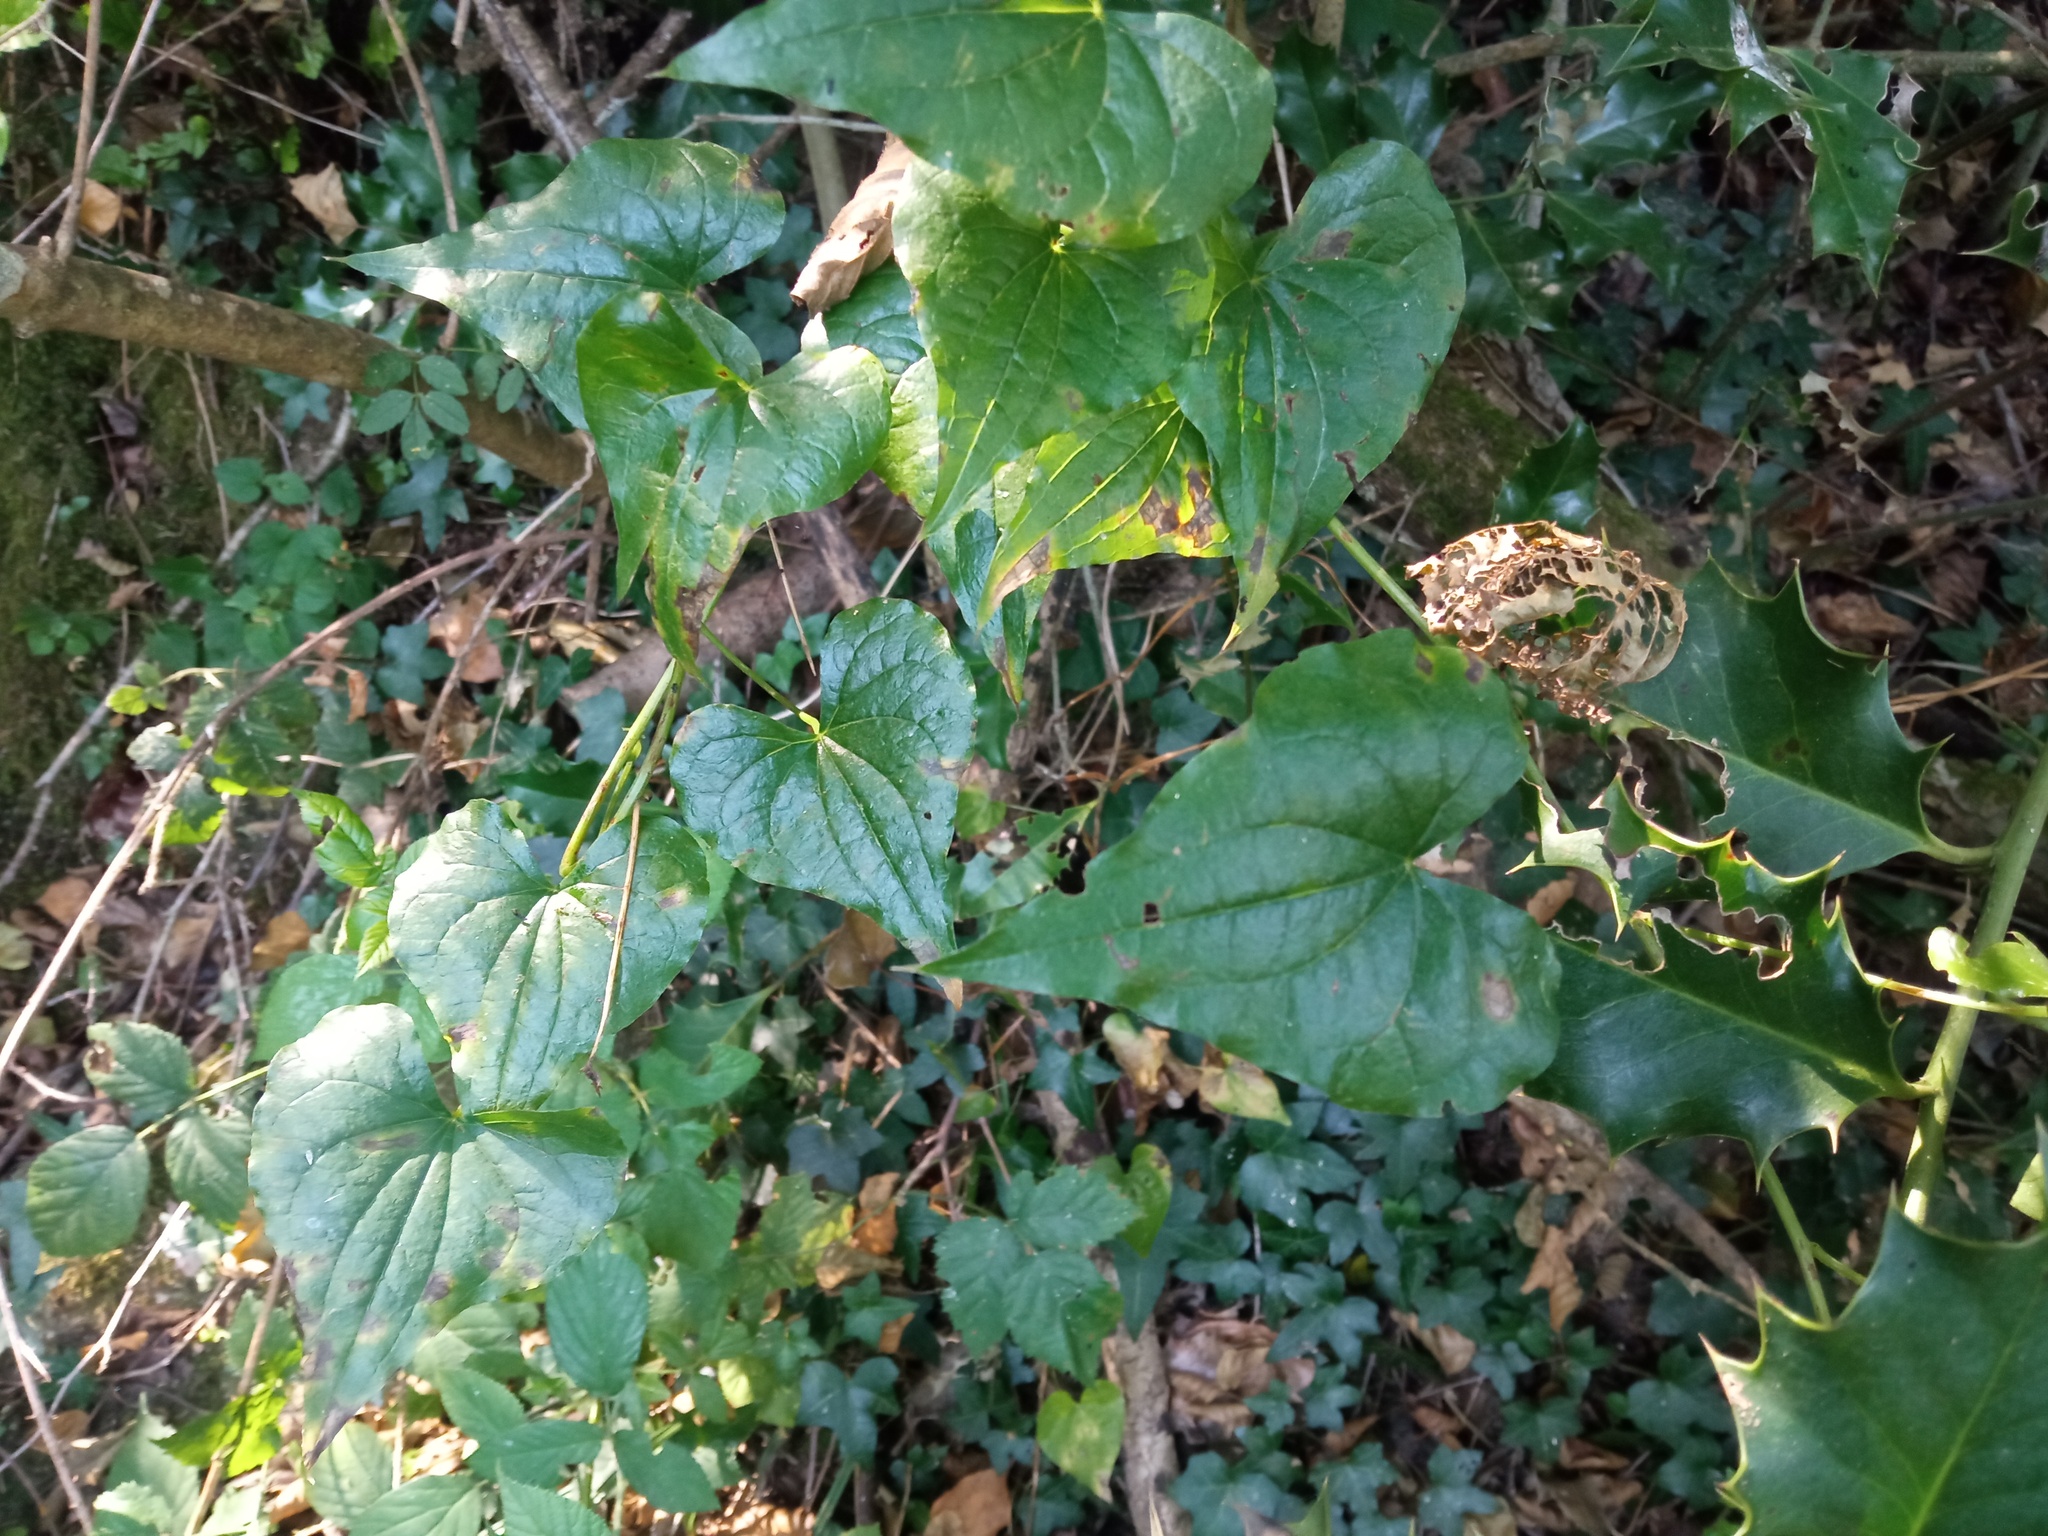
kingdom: Plantae
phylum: Tracheophyta
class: Liliopsida
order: Dioscoreales
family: Dioscoreaceae
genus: Dioscorea
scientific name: Dioscorea communis
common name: Black-bindweed
